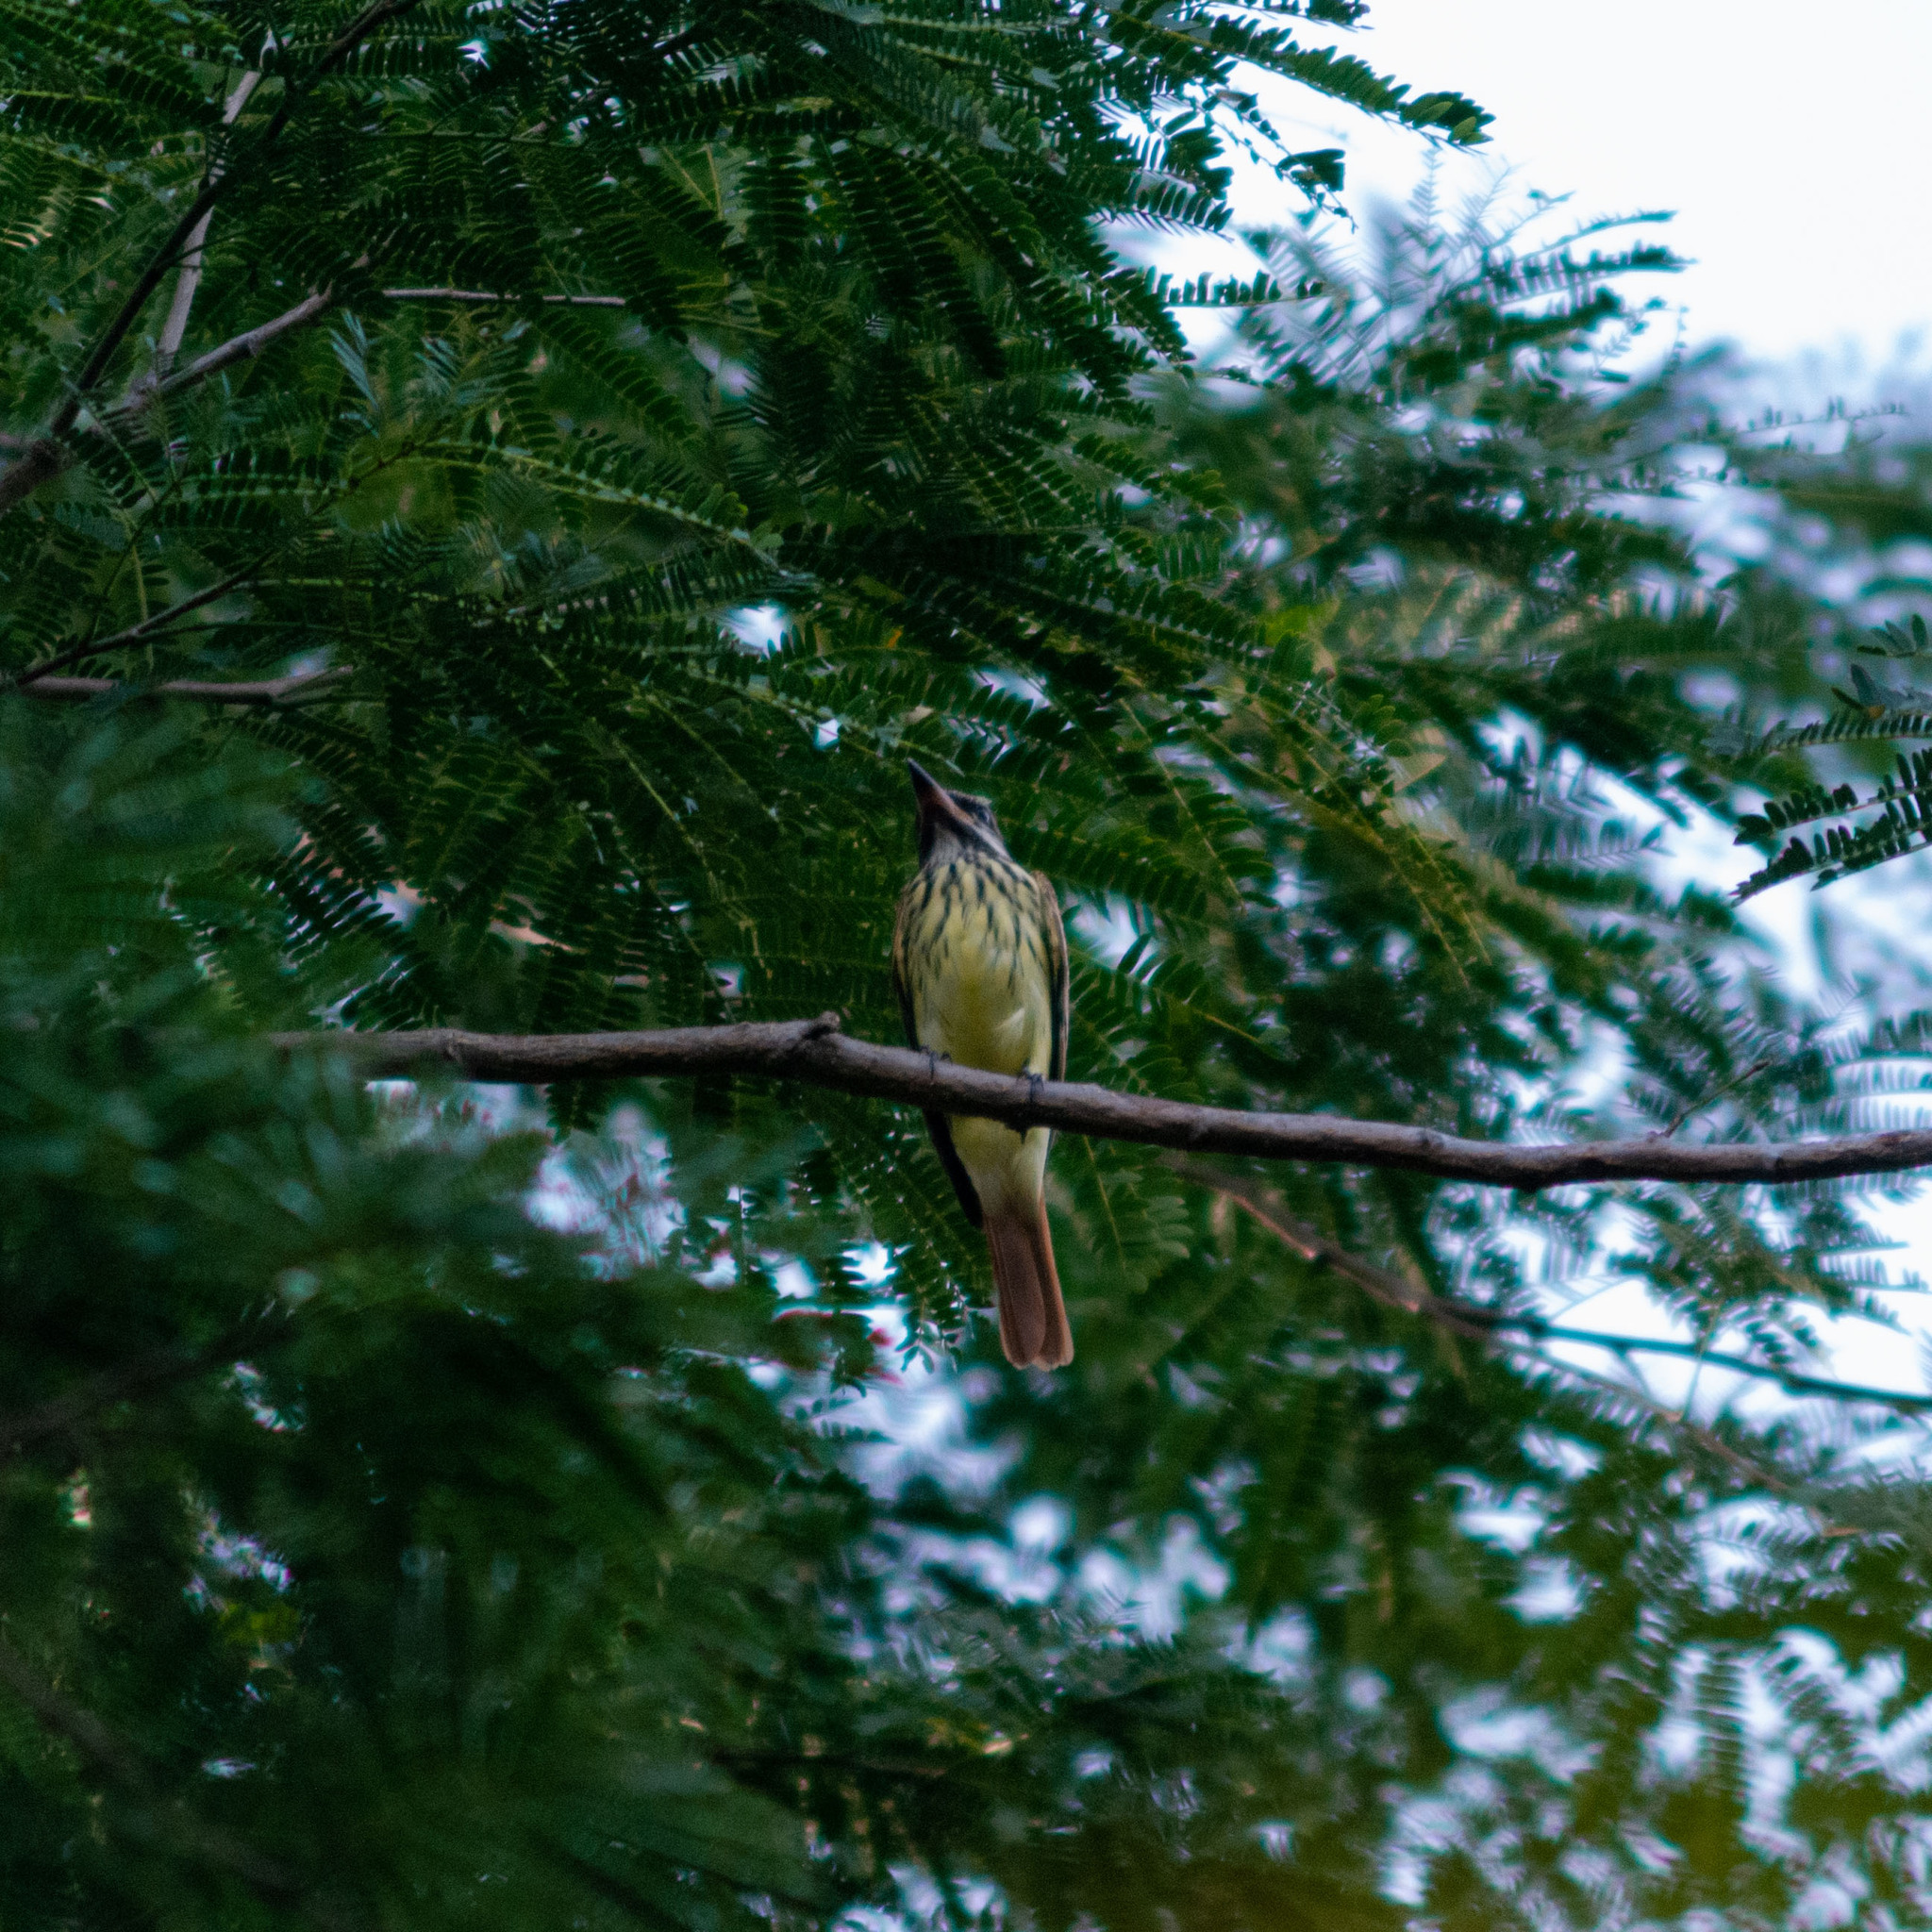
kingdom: Animalia
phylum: Chordata
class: Aves
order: Passeriformes
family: Tyrannidae
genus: Myiodynastes
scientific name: Myiodynastes luteiventris
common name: Sulphur-bellied flycatcher
